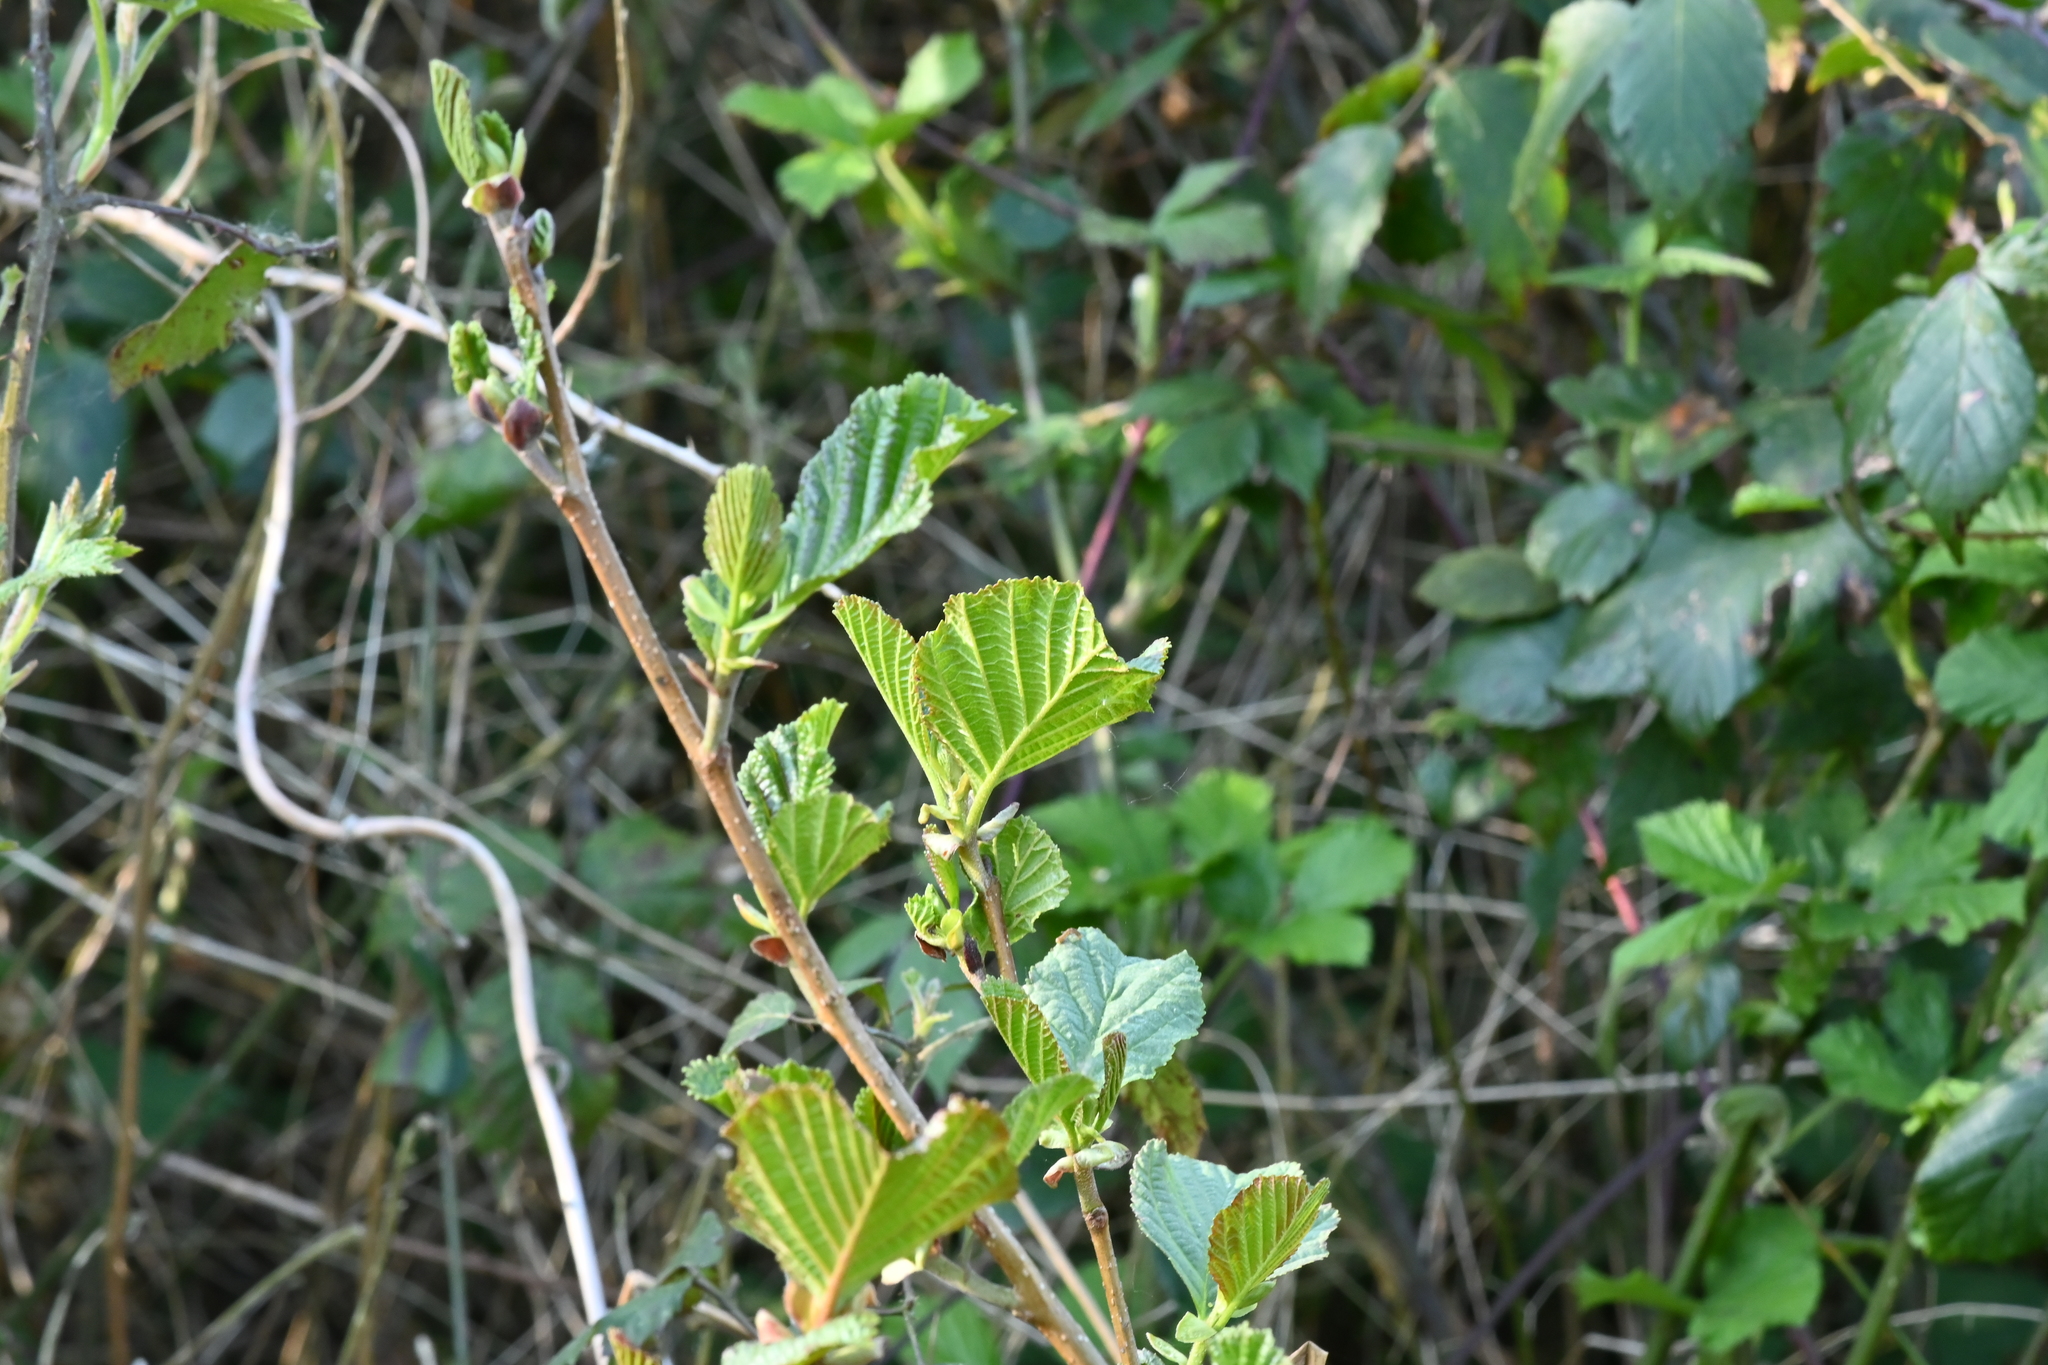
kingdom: Plantae
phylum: Tracheophyta
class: Magnoliopsida
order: Fagales
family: Betulaceae
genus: Alnus
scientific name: Alnus glutinosa
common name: Black alder
